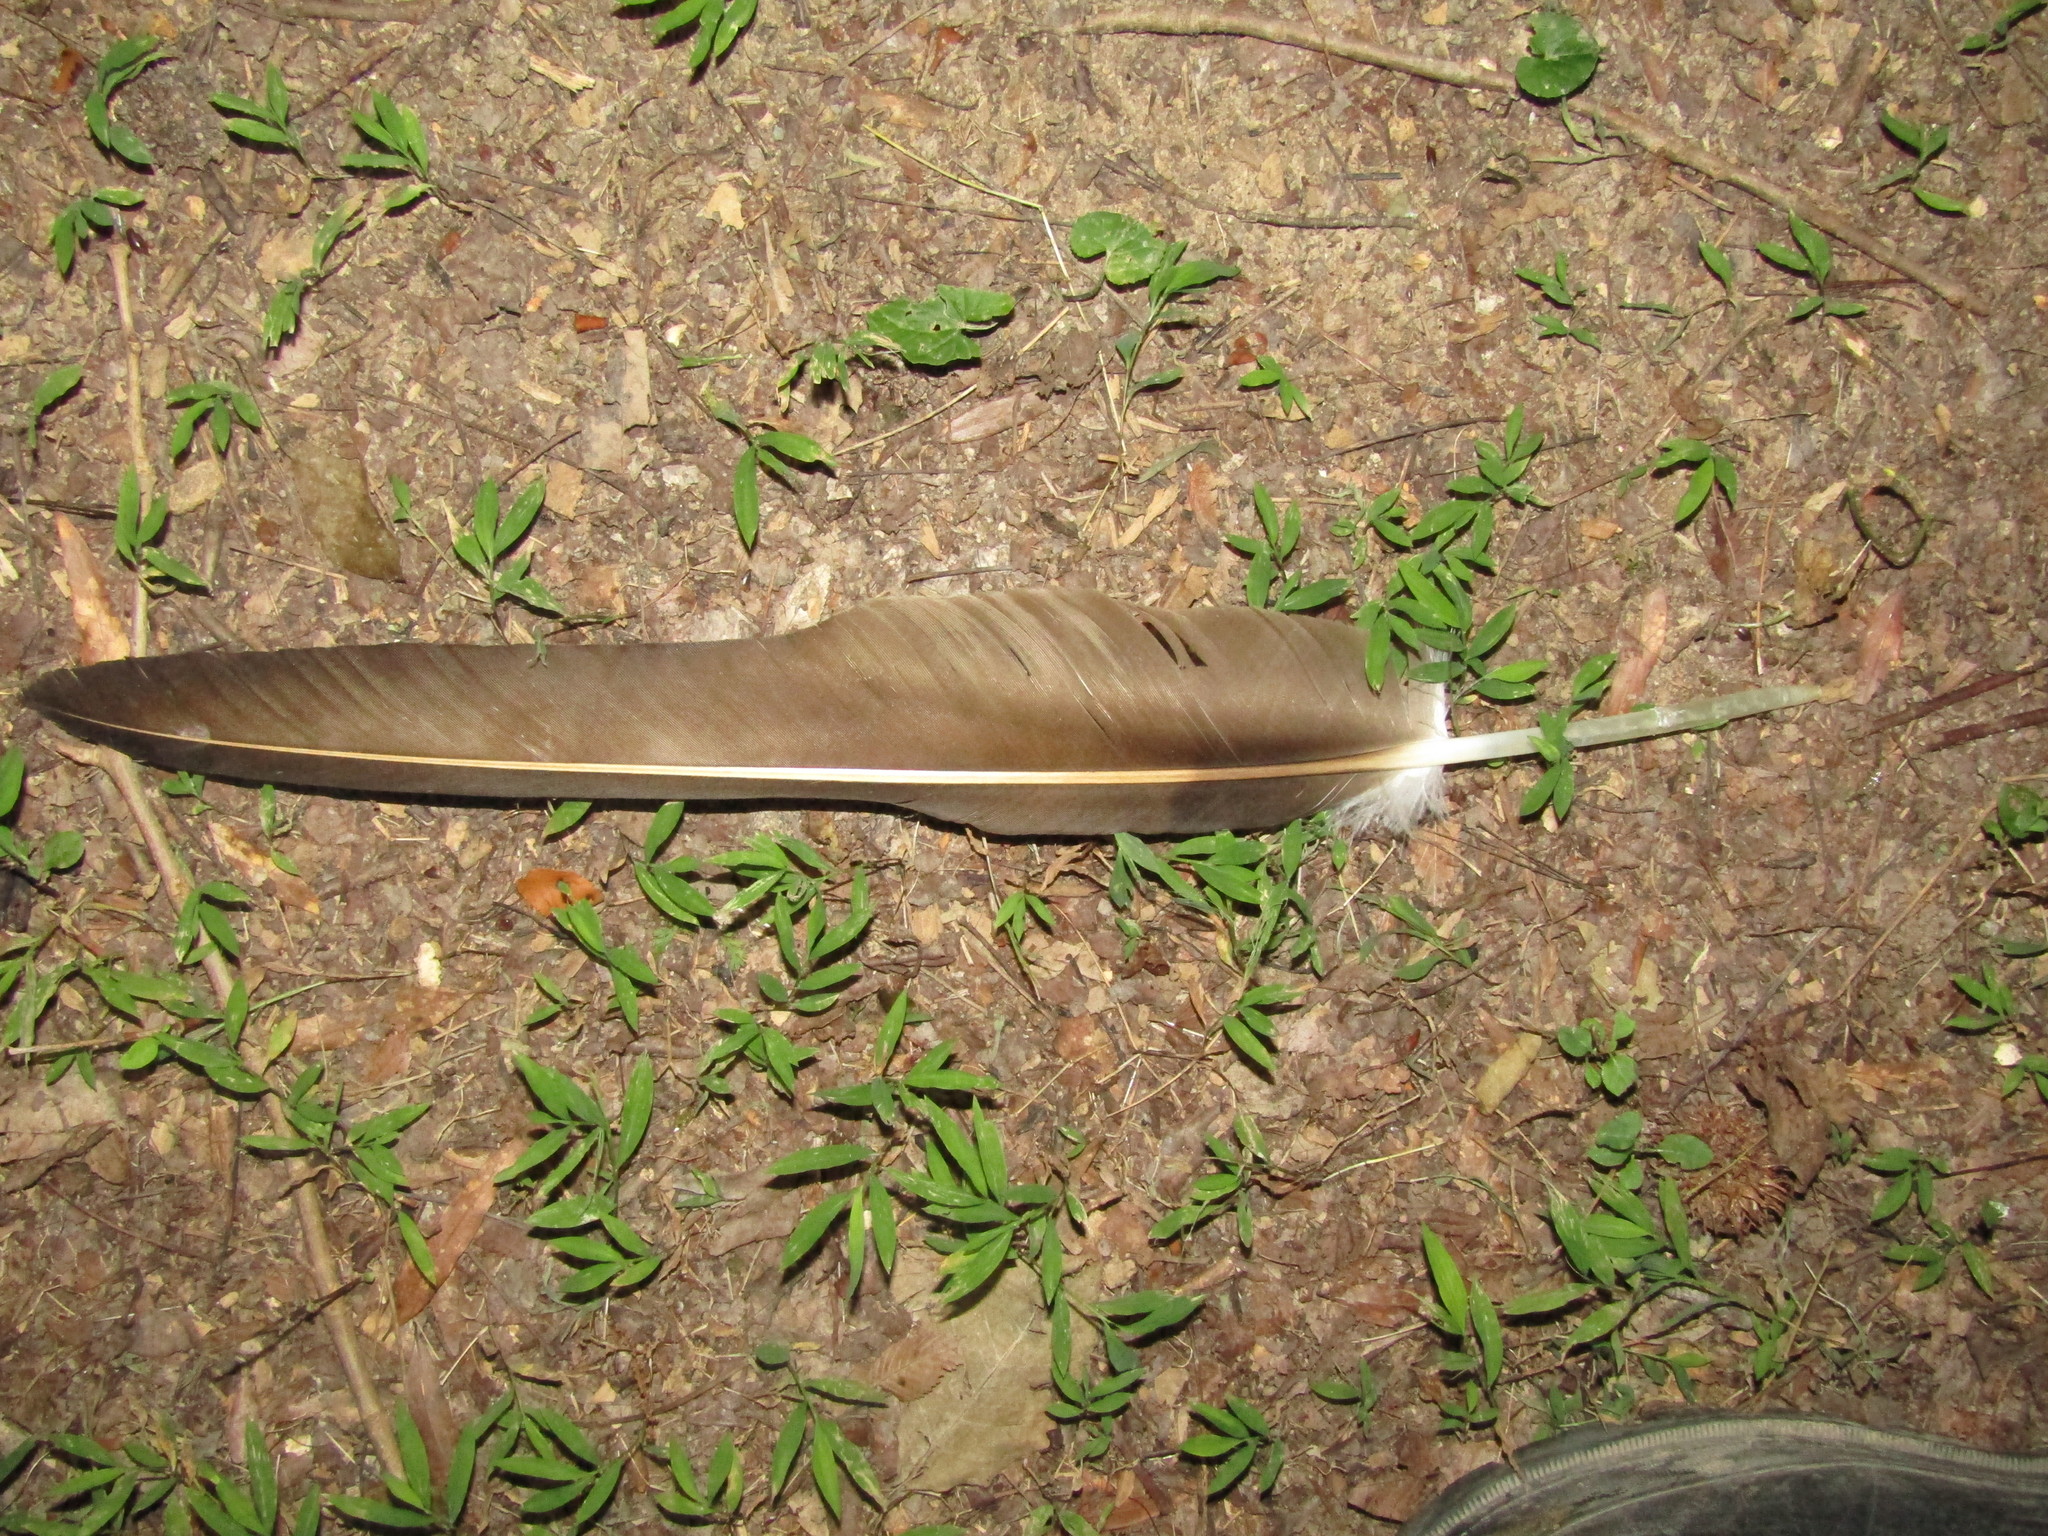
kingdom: Animalia
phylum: Chordata
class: Aves
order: Accipitriformes
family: Cathartidae
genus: Cathartes
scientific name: Cathartes aura
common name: Turkey vulture
